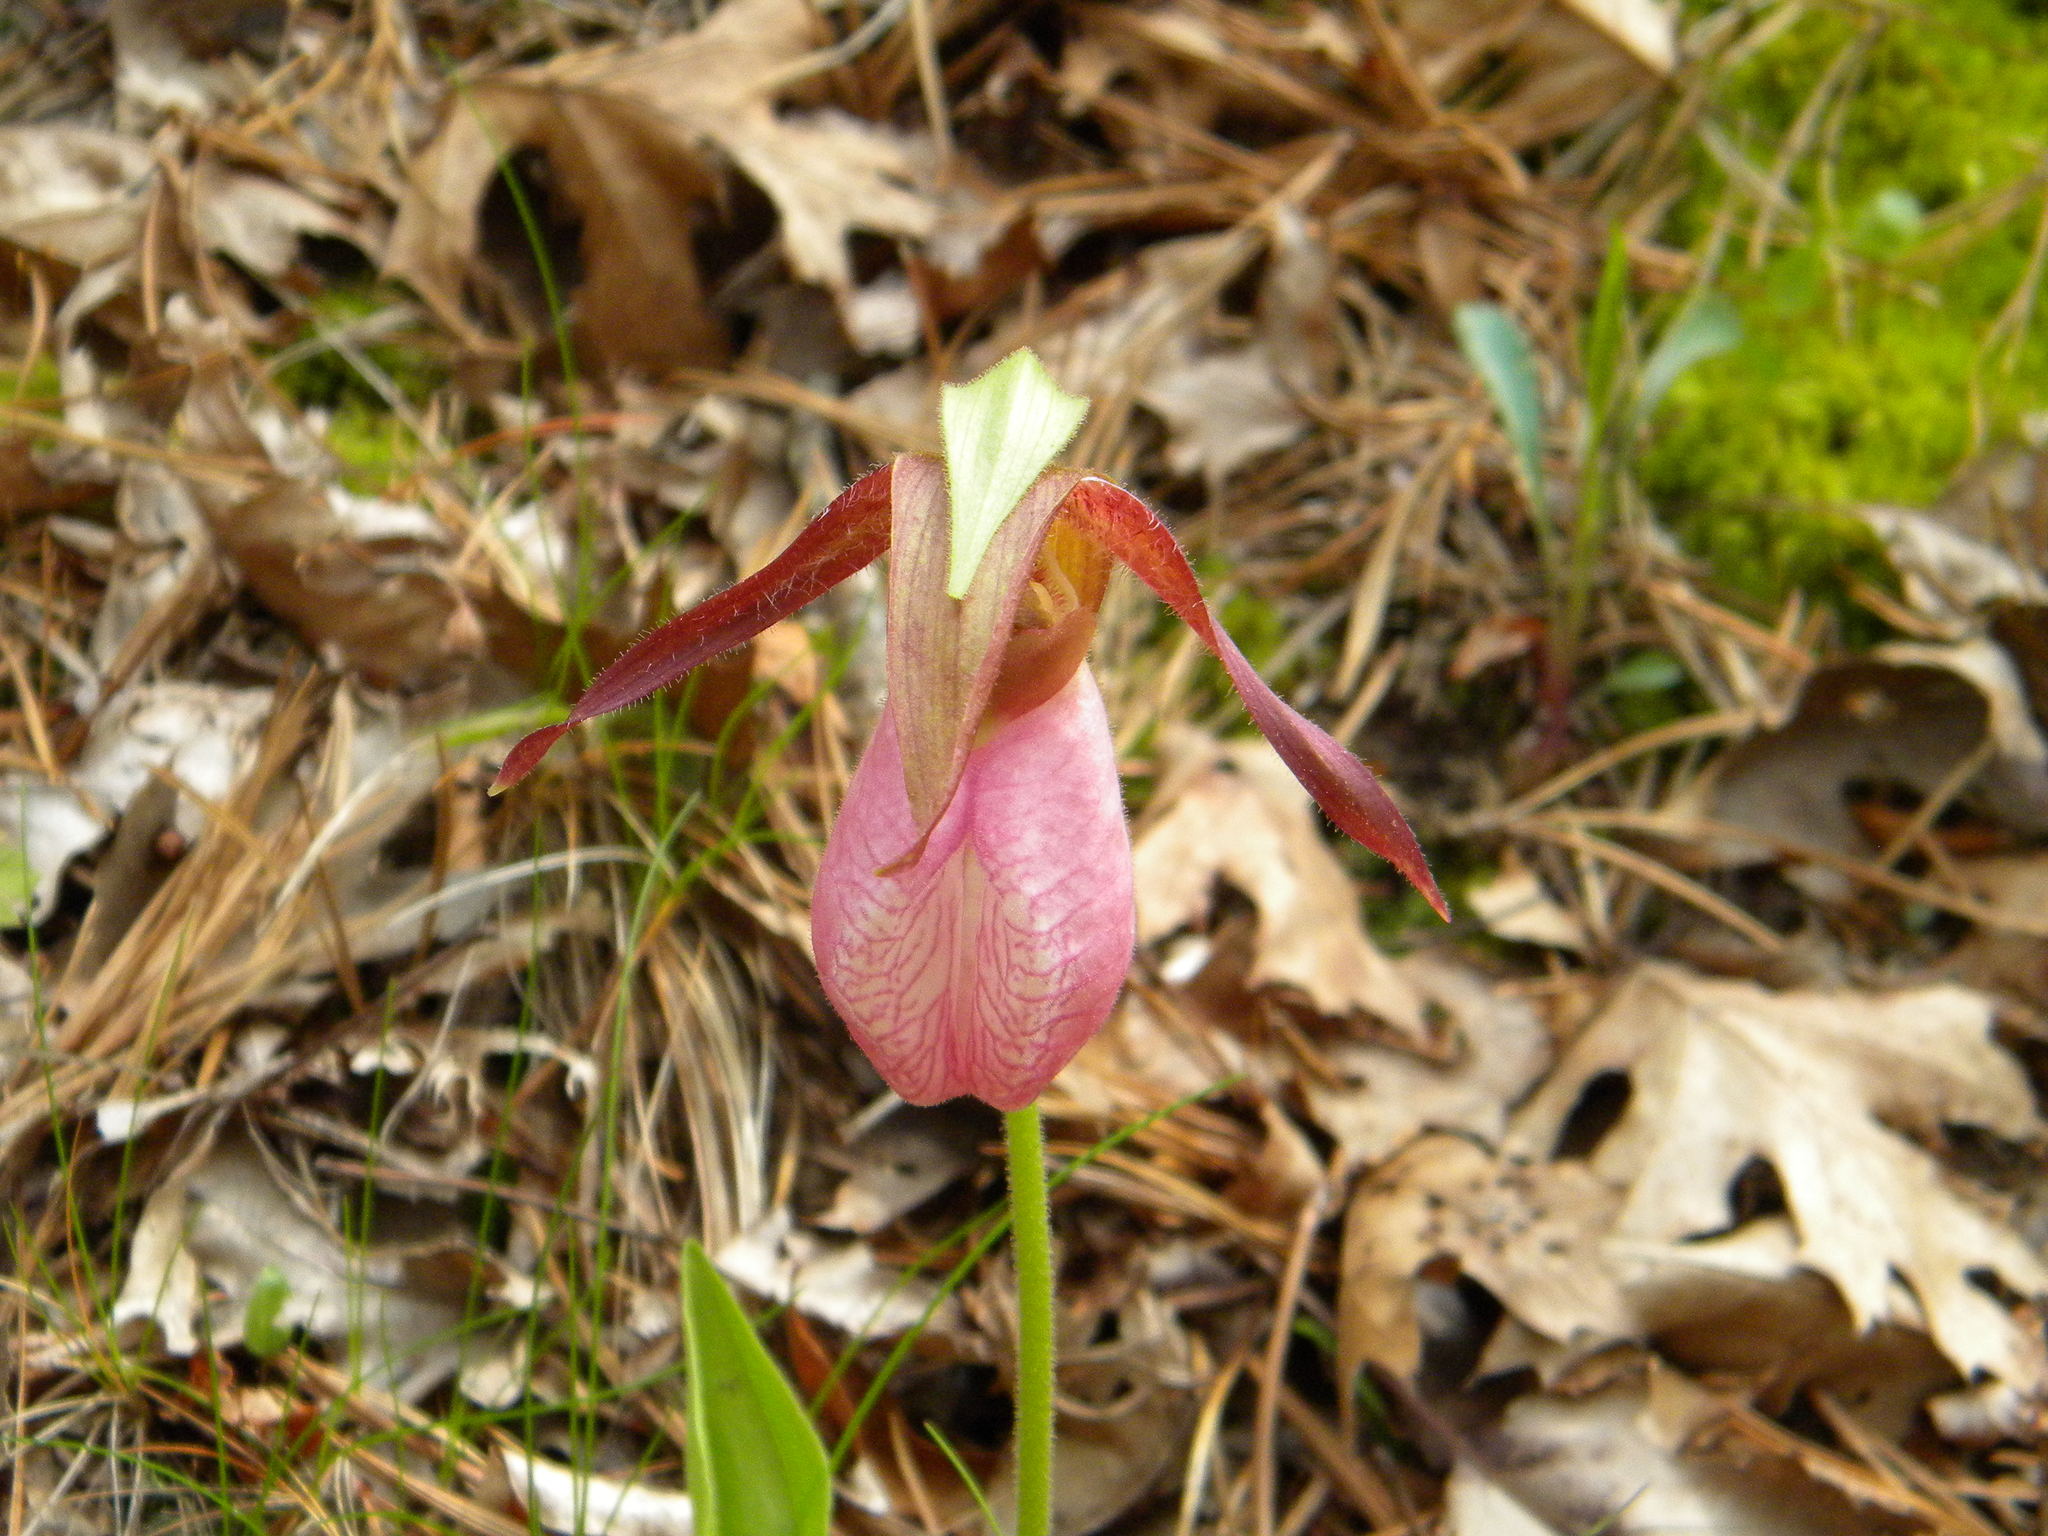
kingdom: Plantae
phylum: Tracheophyta
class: Liliopsida
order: Asparagales
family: Orchidaceae
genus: Cypripedium
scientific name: Cypripedium acaule
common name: Pink lady's-slipper
